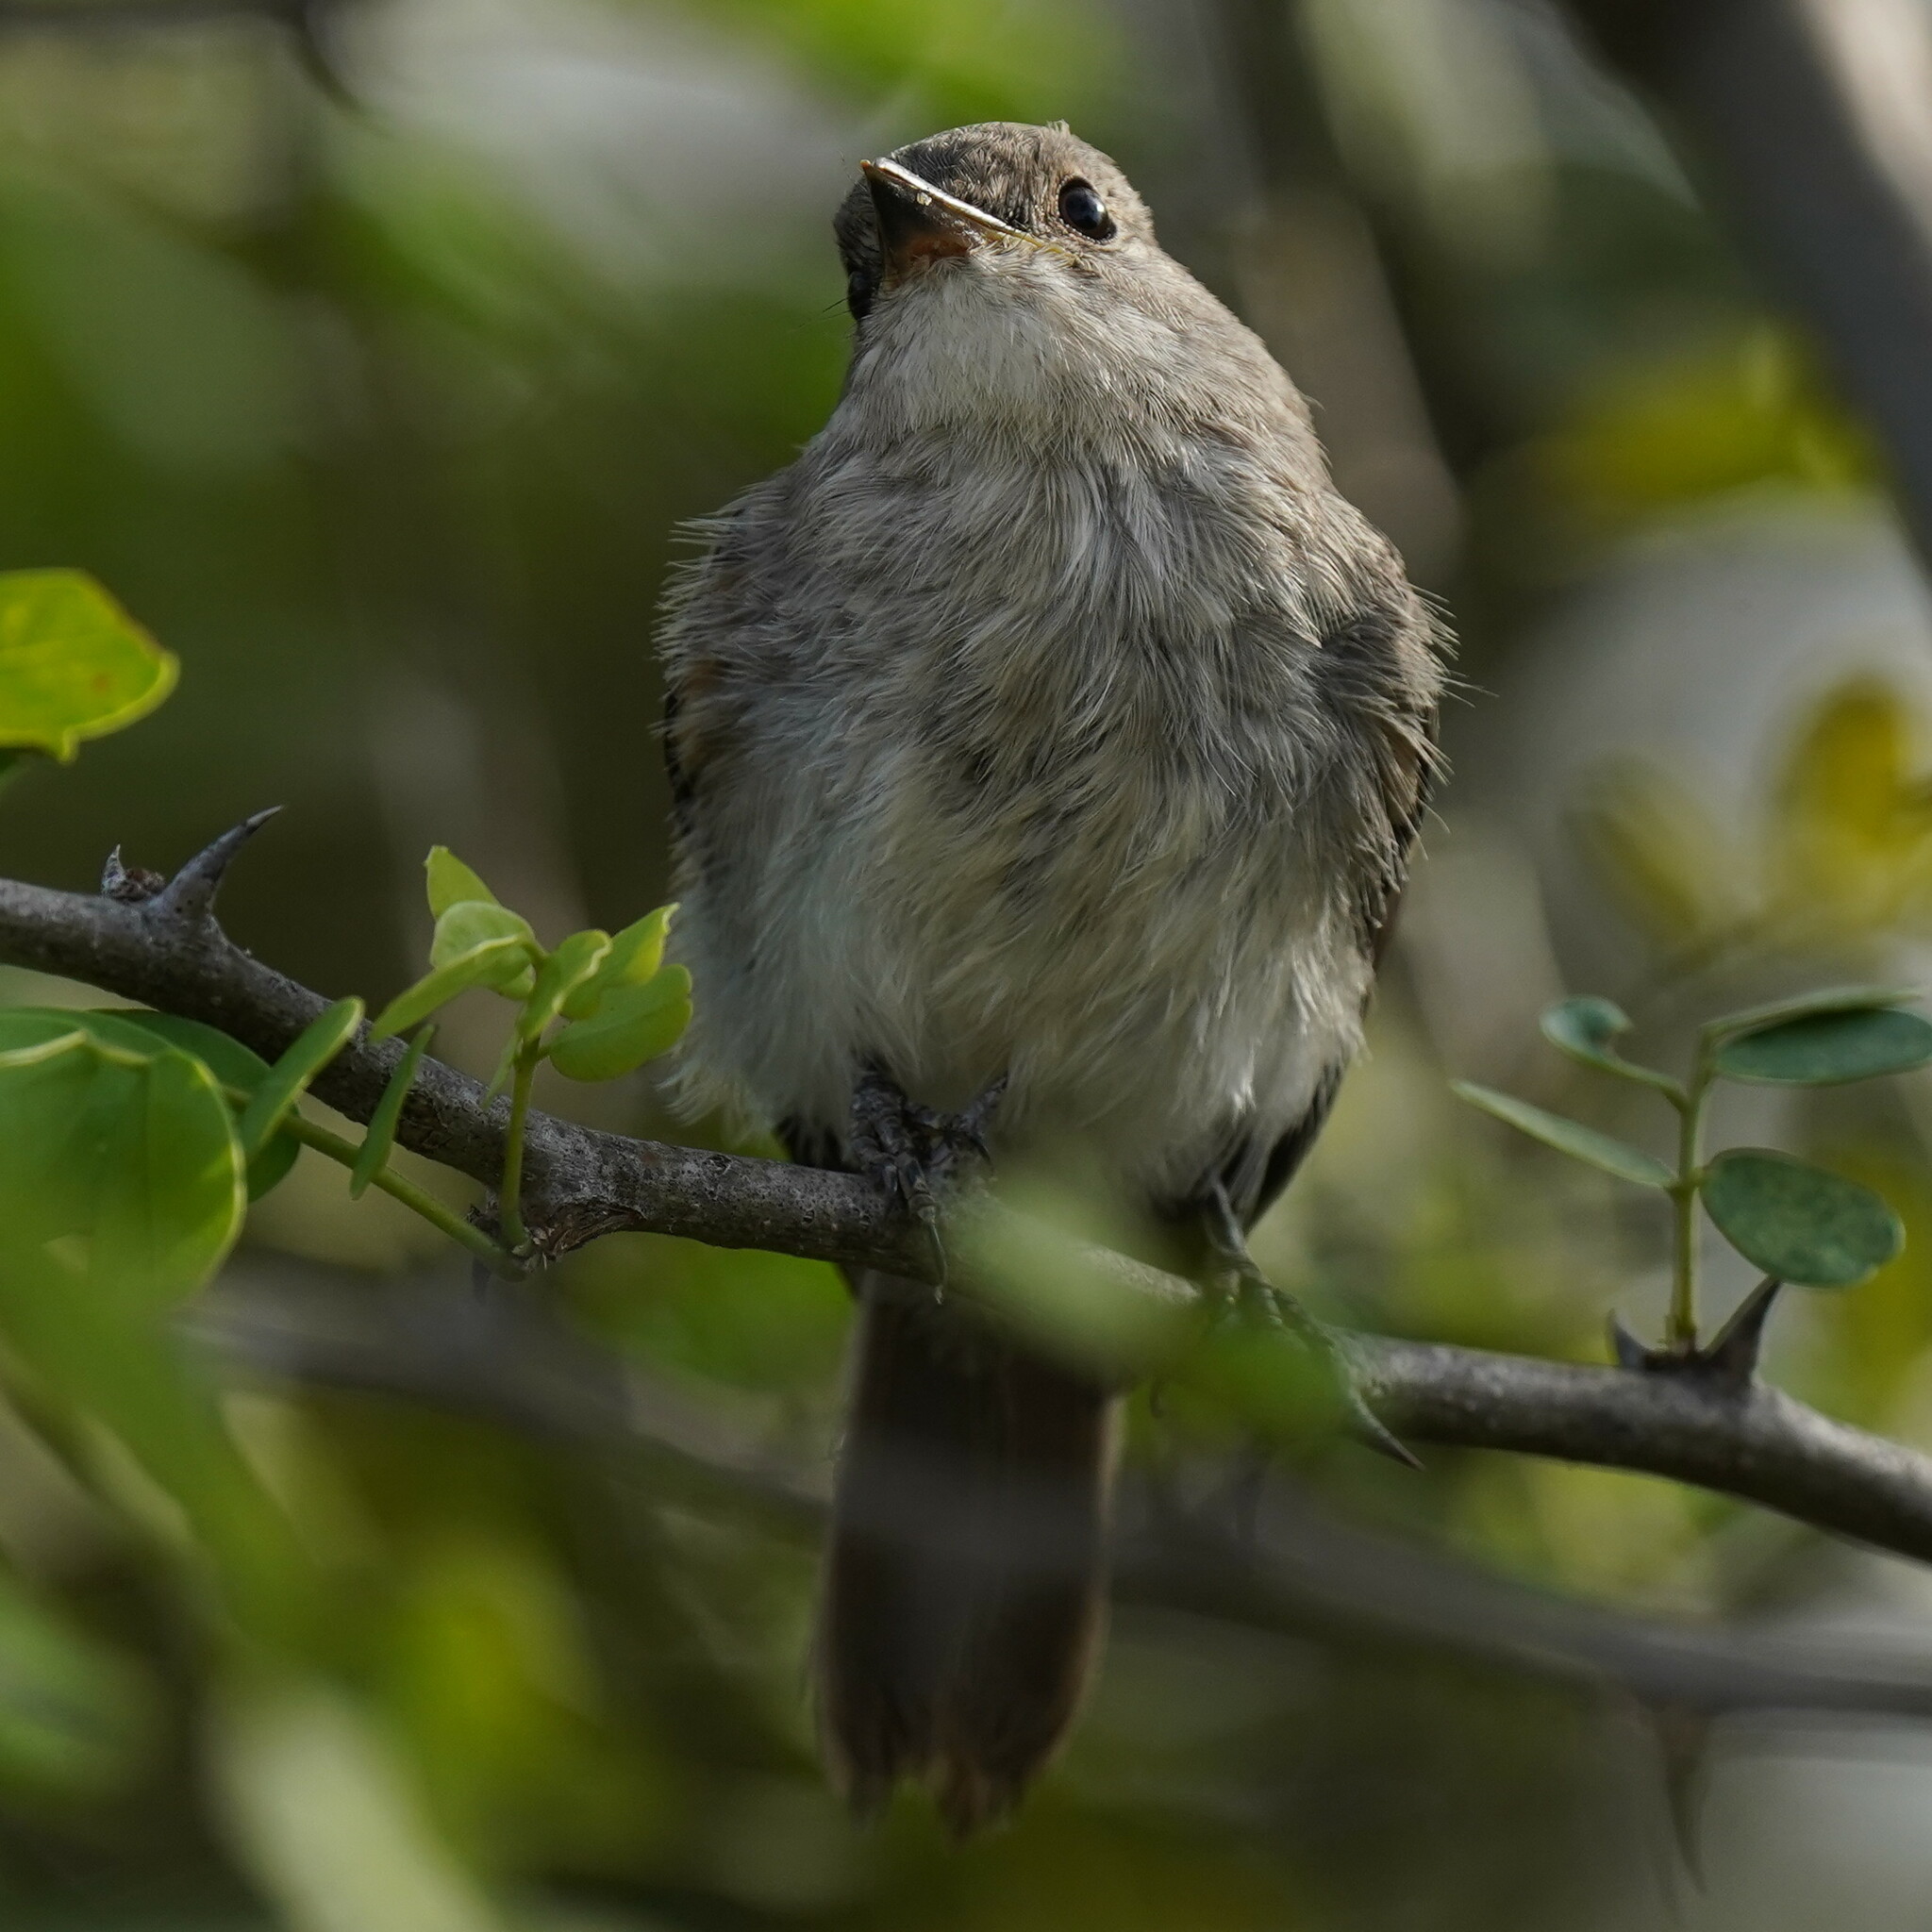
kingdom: Animalia
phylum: Chordata
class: Aves
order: Passeriformes
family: Muscicapidae
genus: Muscicapa
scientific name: Muscicapa aquatica
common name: Swamp flycatcher
